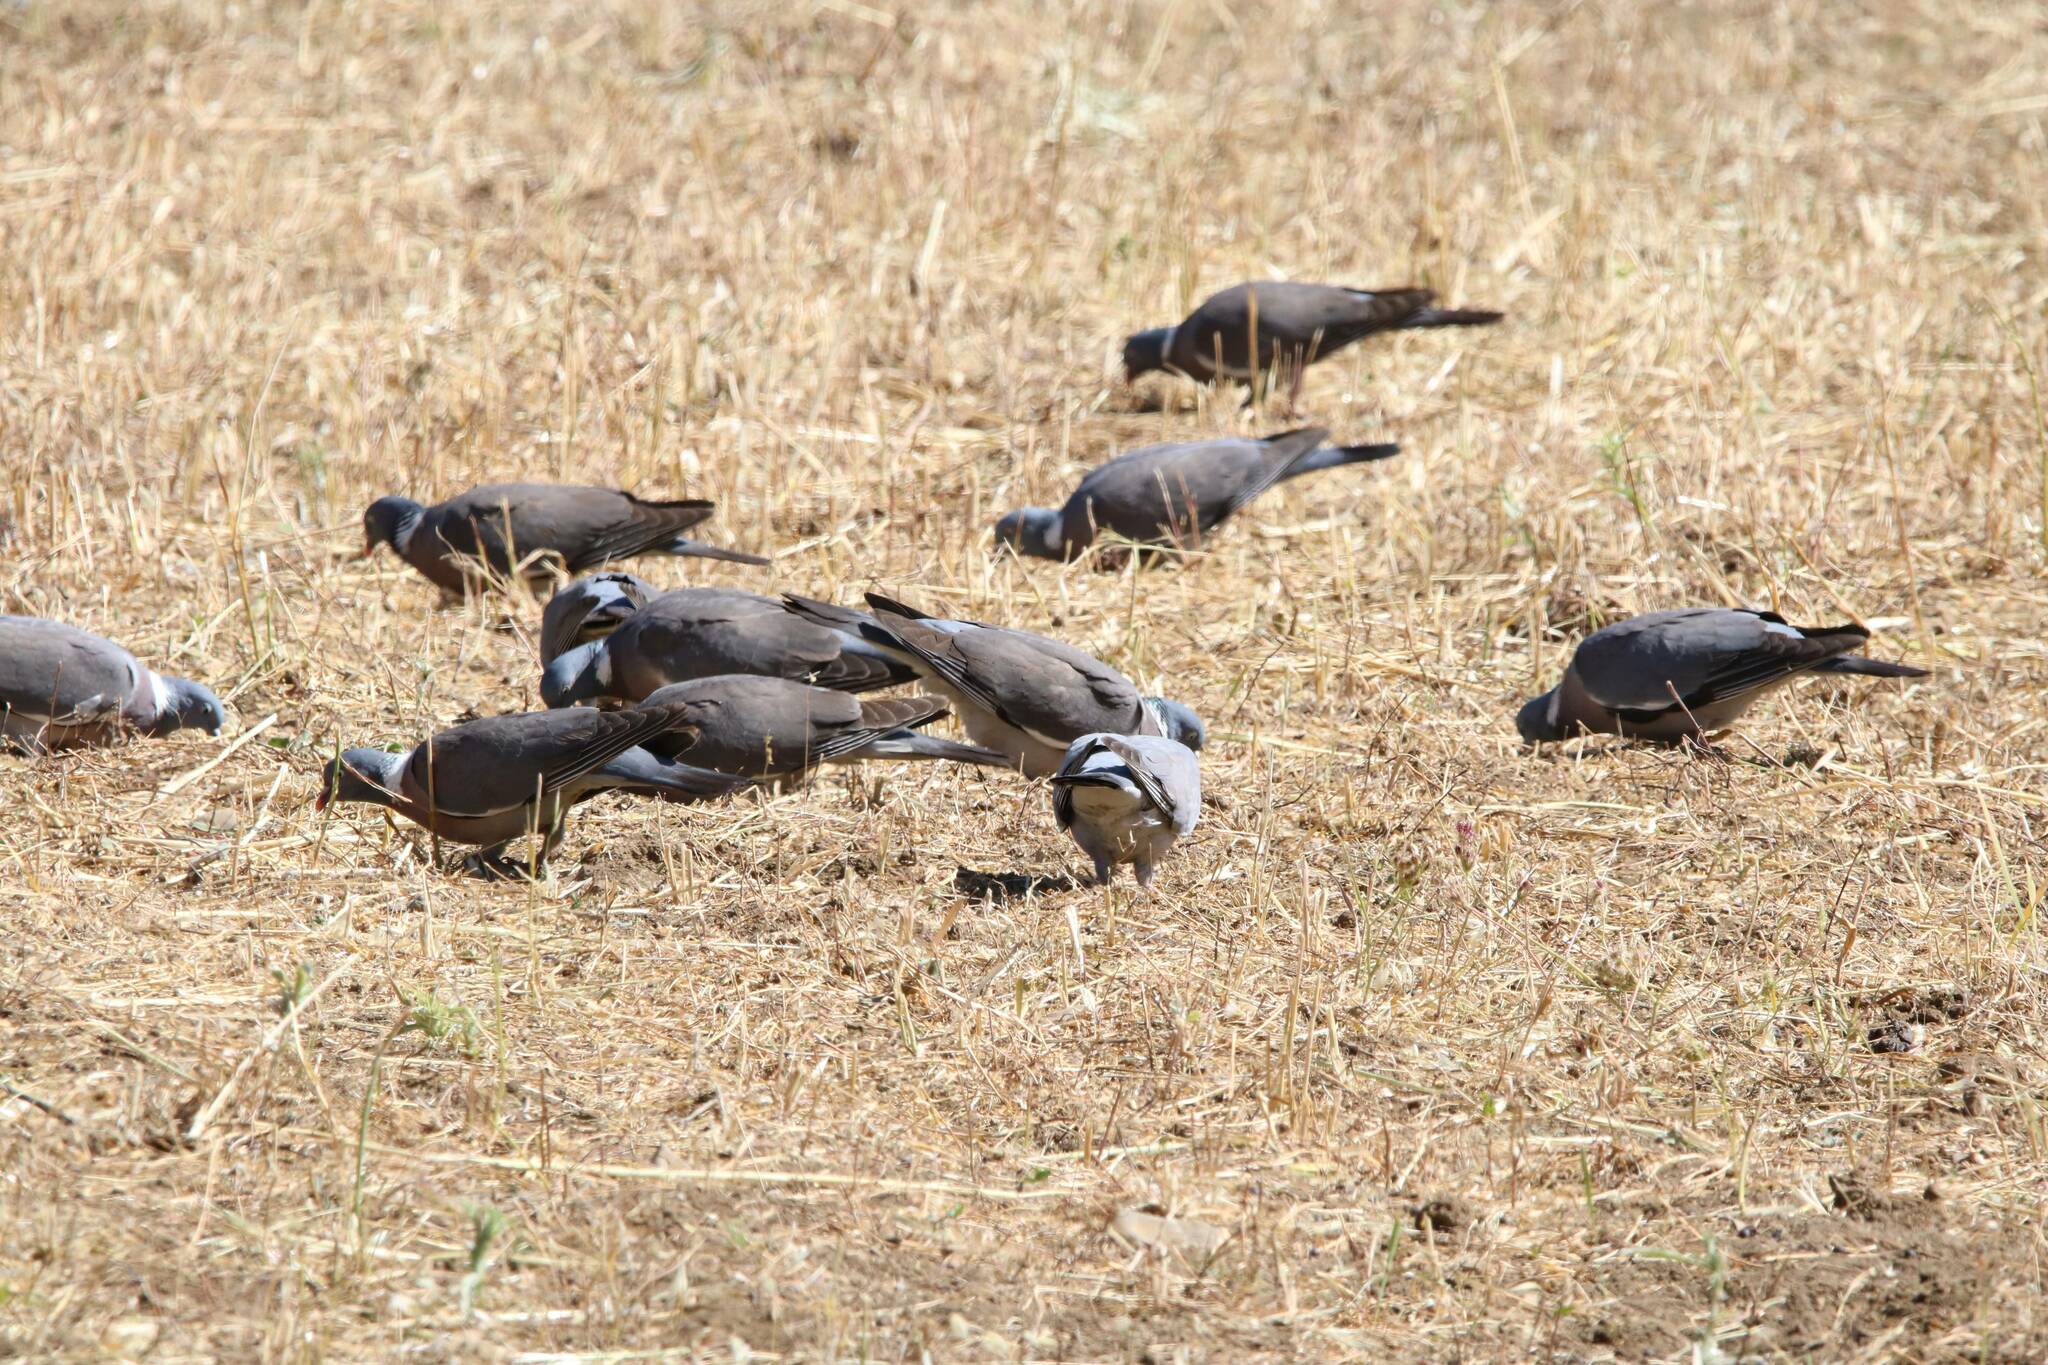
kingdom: Animalia
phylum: Chordata
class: Aves
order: Columbiformes
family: Columbidae
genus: Columba
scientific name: Columba palumbus
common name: Common wood pigeon
